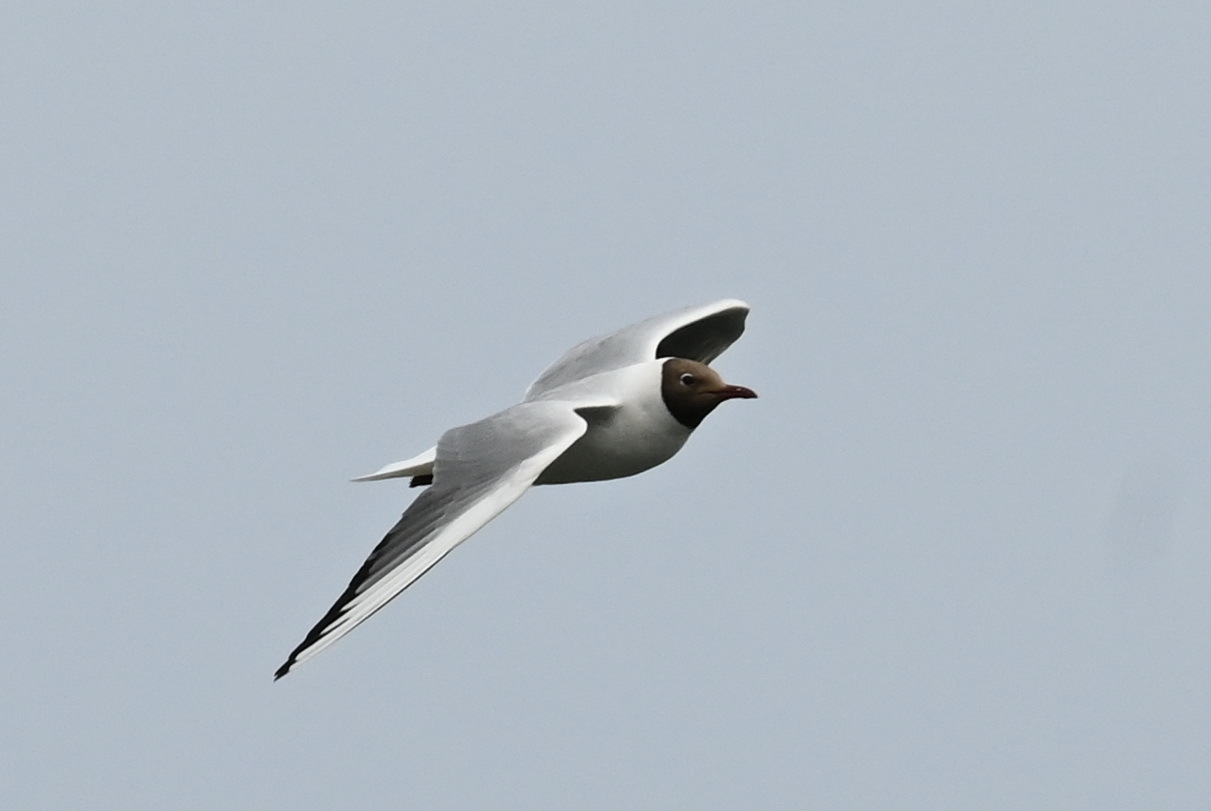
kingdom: Animalia
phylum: Chordata
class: Aves
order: Charadriiformes
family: Laridae
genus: Chroicocephalus
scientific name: Chroicocephalus ridibundus
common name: Black-headed gull
